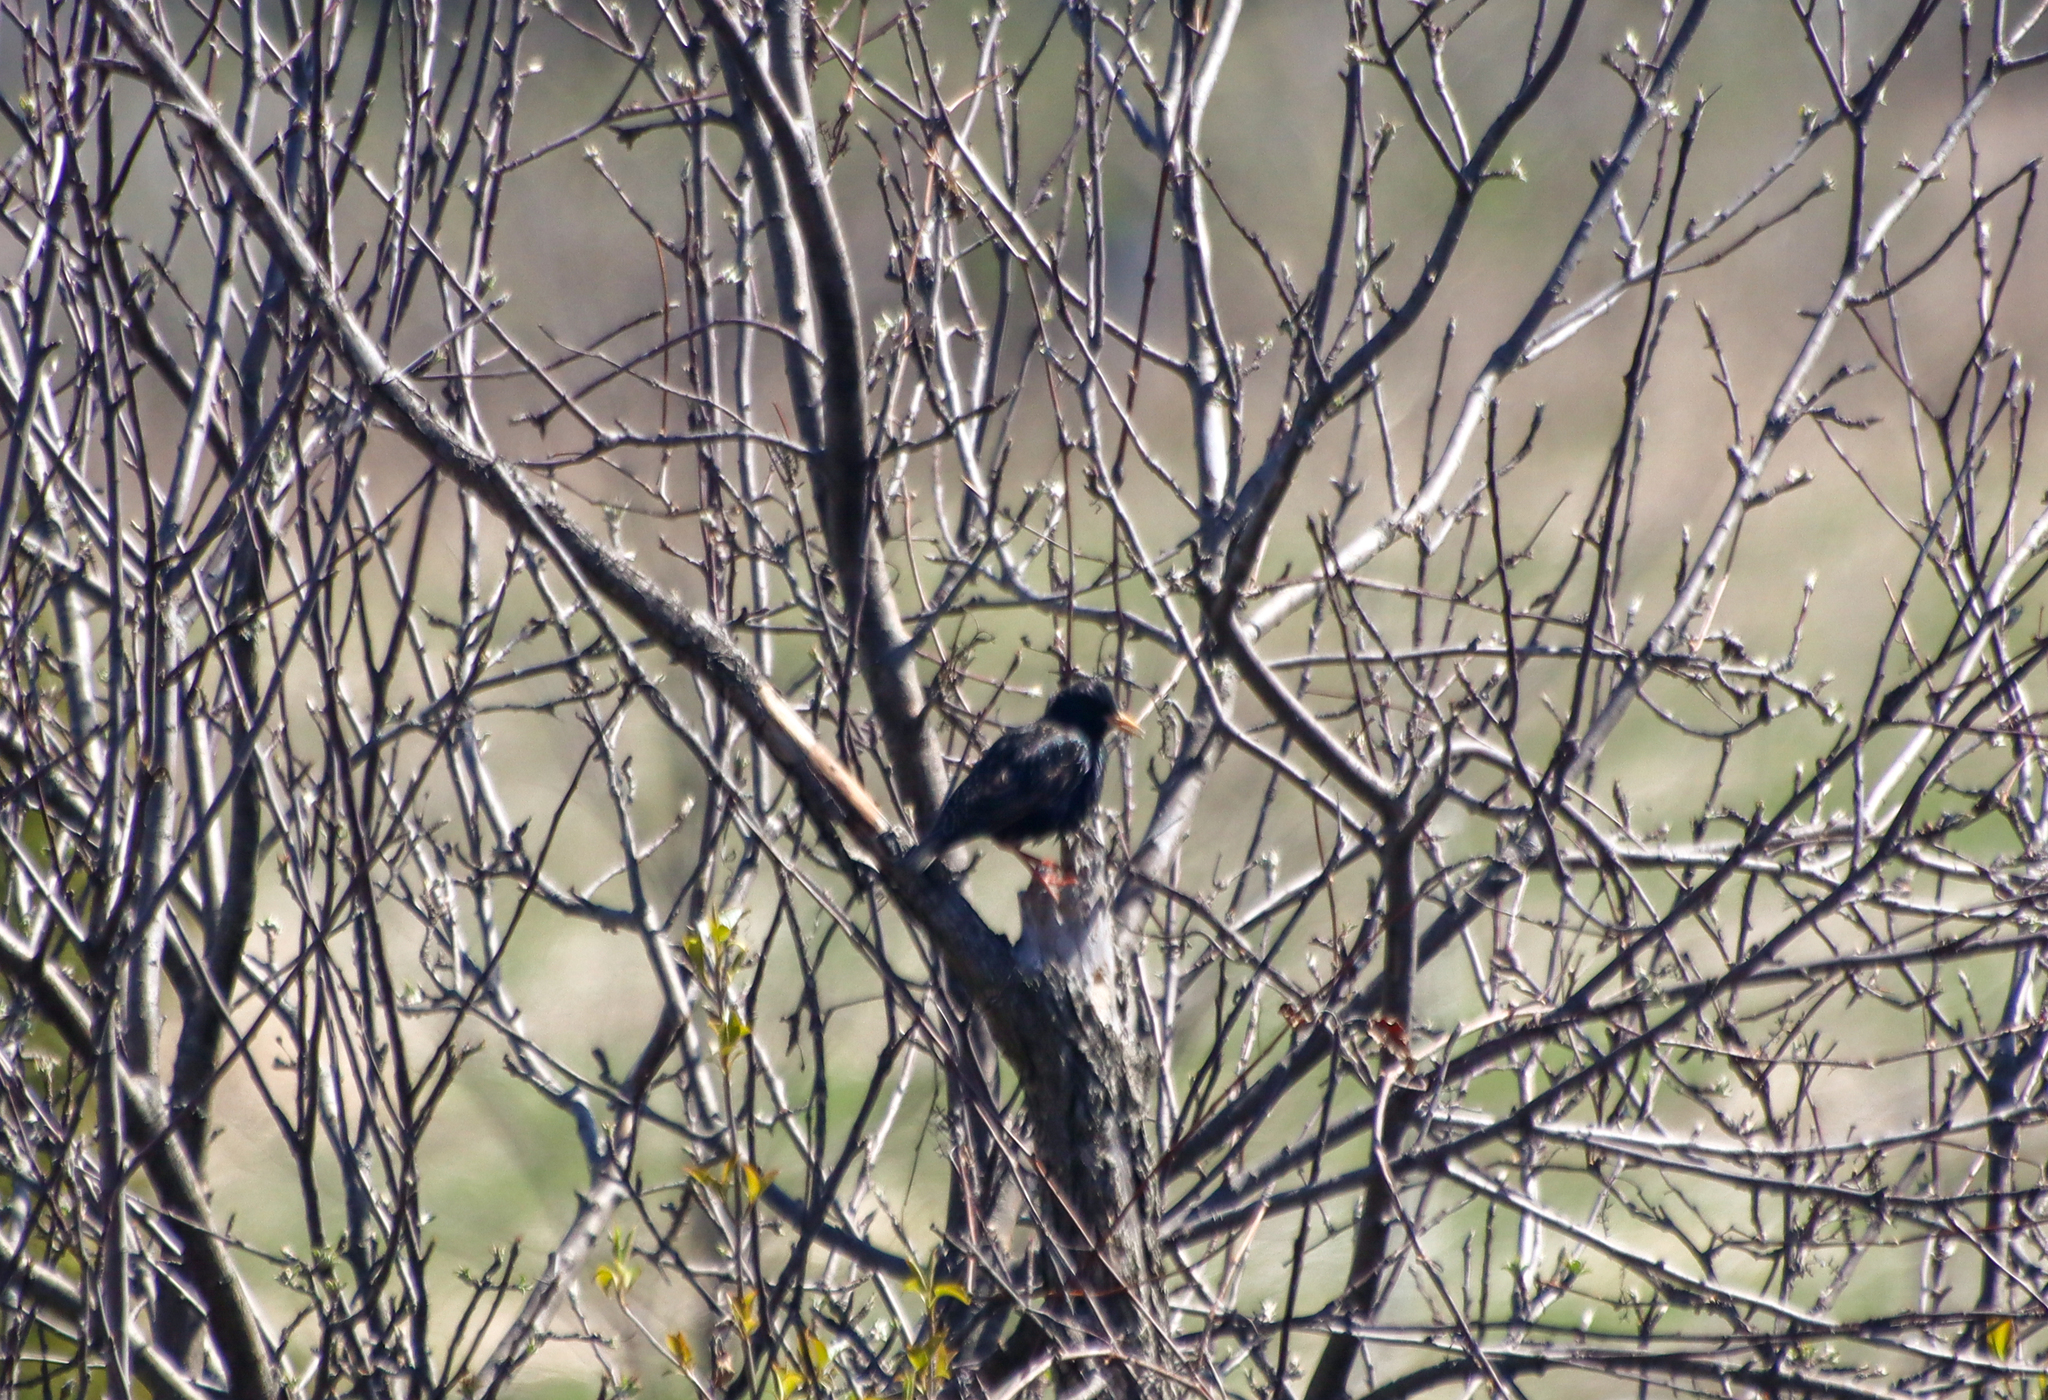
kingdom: Animalia
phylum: Chordata
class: Aves
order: Passeriformes
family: Sturnidae
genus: Sturnus
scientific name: Sturnus vulgaris
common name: Common starling
